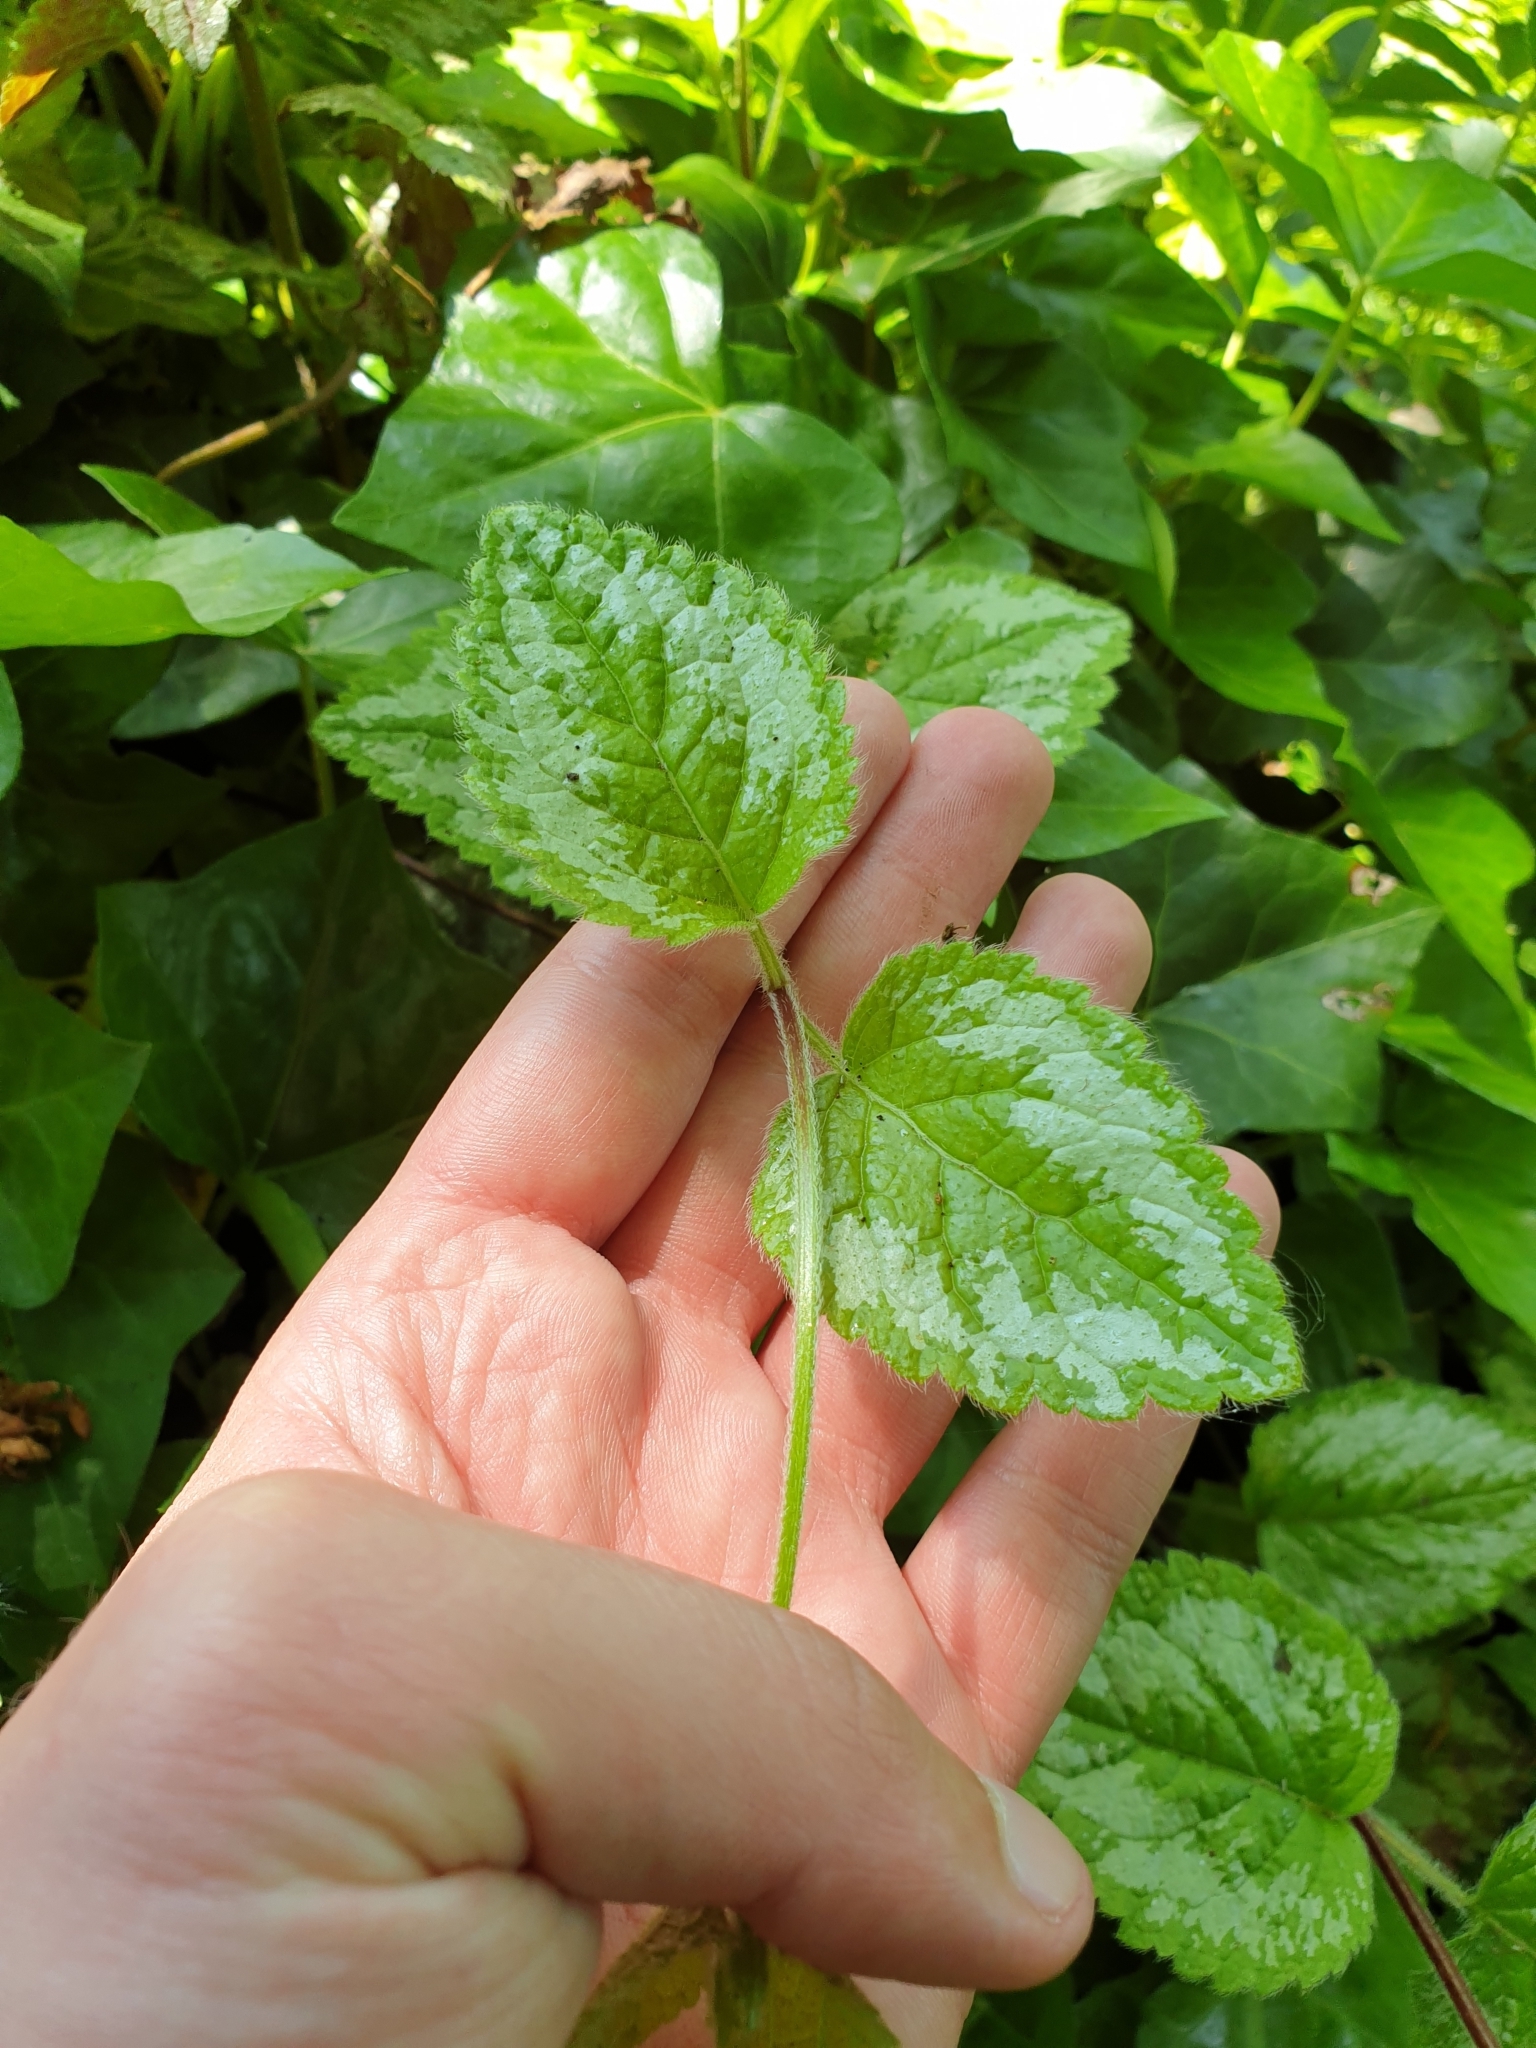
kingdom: Plantae
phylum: Tracheophyta
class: Magnoliopsida
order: Lamiales
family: Lamiaceae
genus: Lamium
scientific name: Lamium galeobdolon
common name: Yellow archangel
